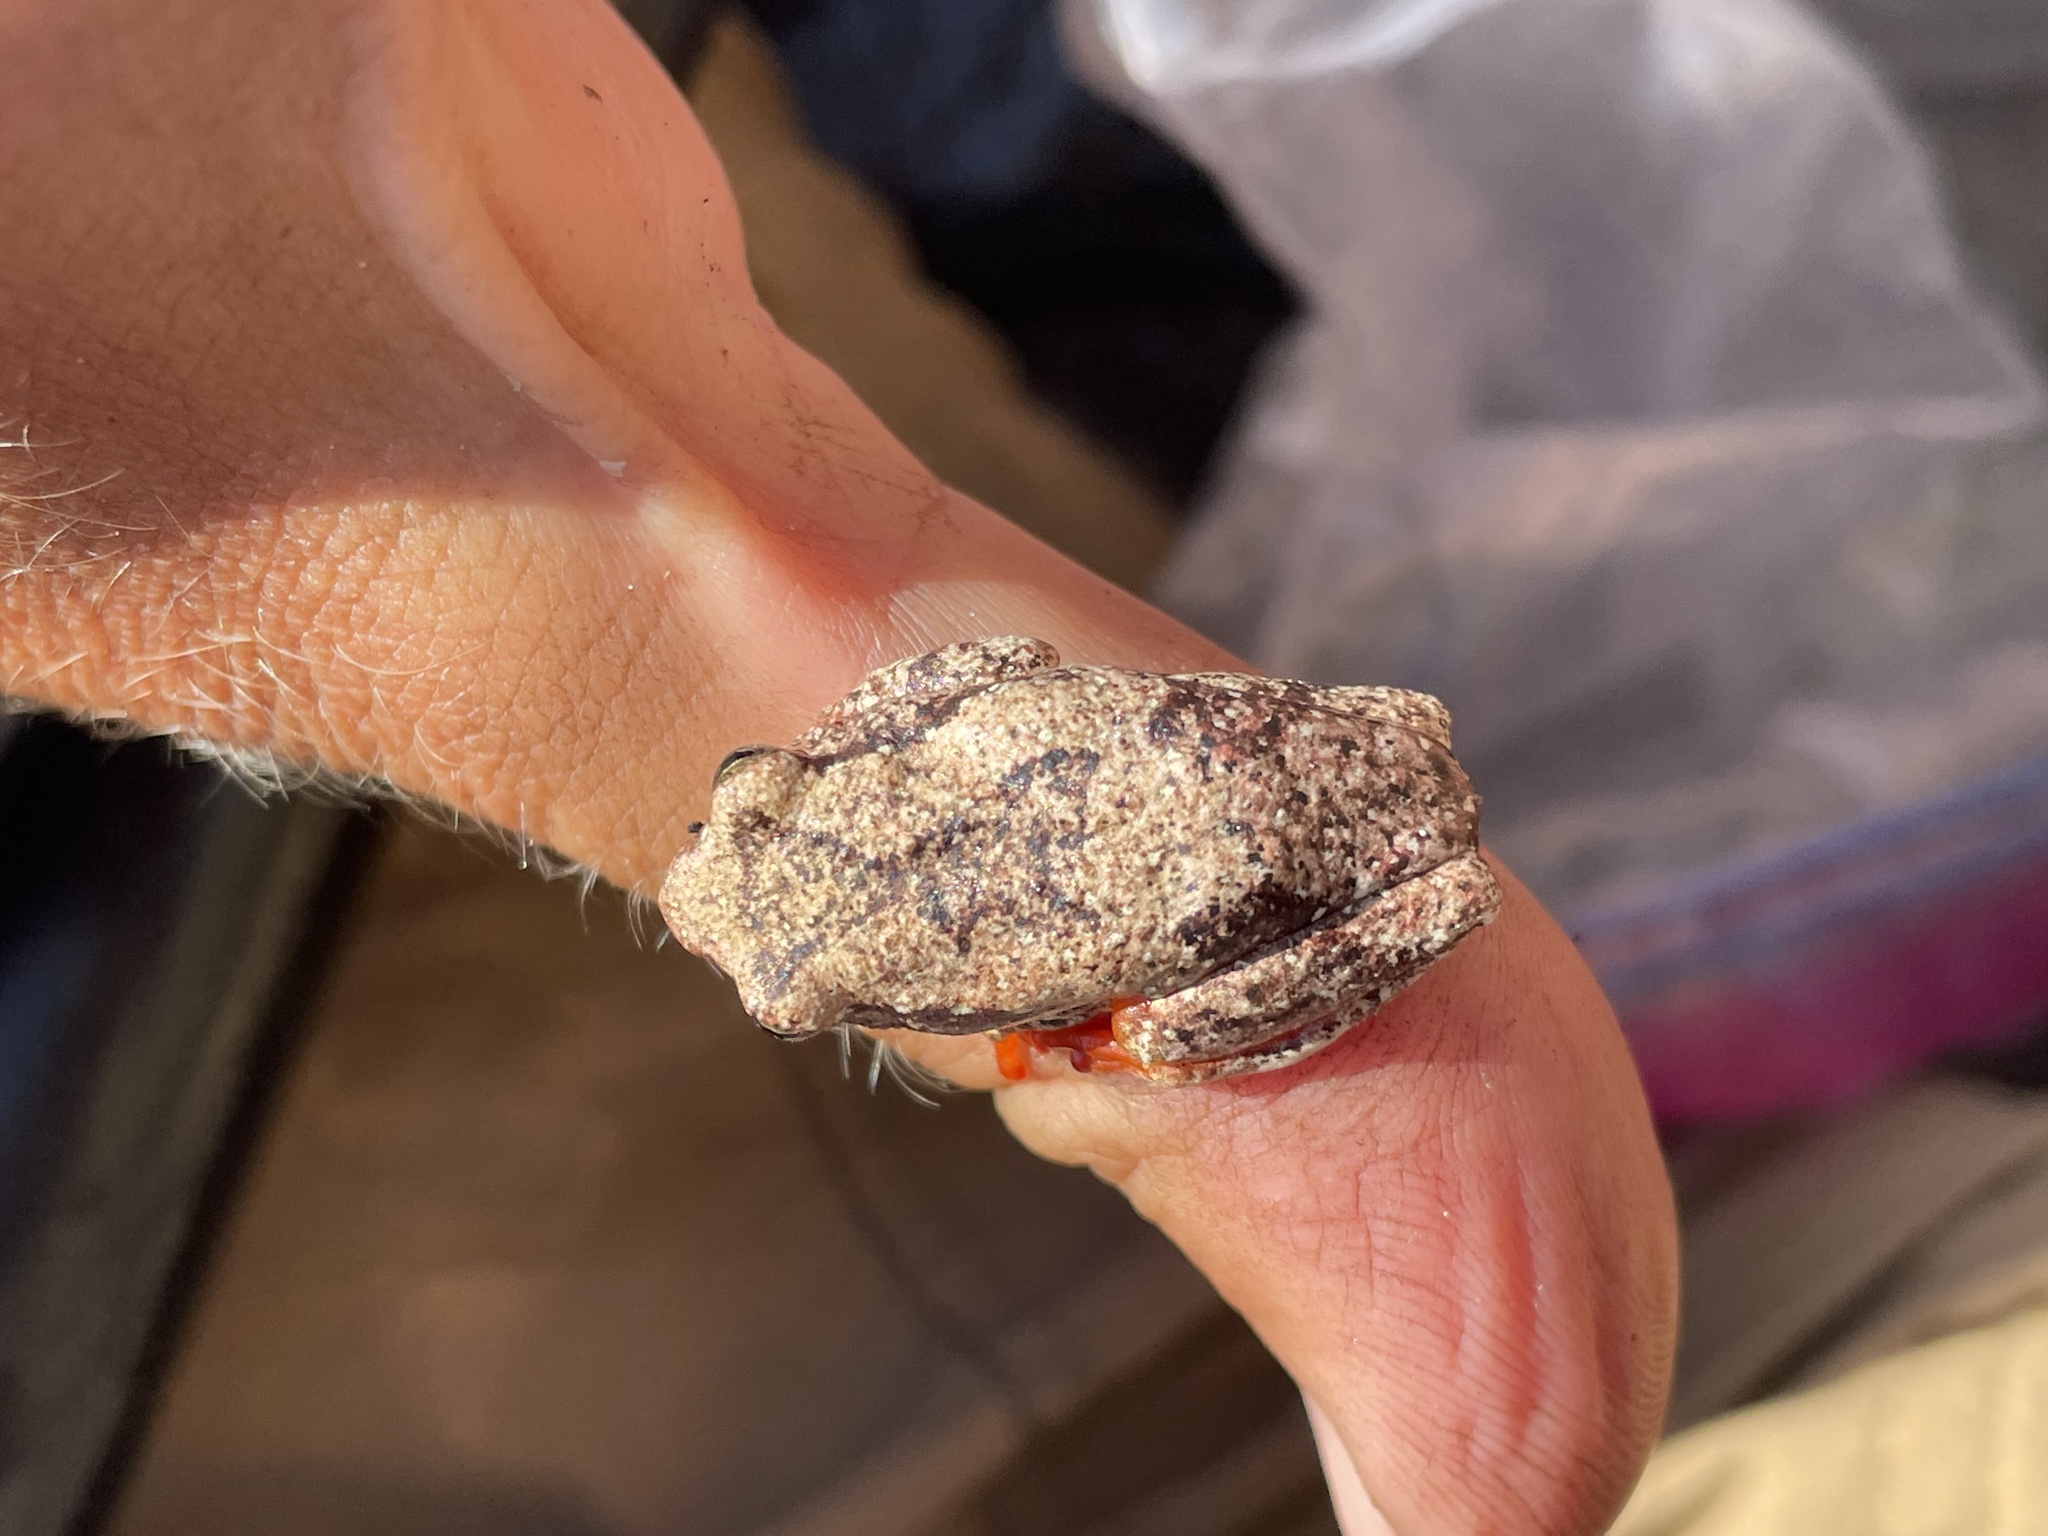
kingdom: Animalia
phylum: Chordata
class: Amphibia
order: Anura
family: Hyperoliidae
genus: Hyperolius
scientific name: Hyperolius parallelus
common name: Angolan reed frog
